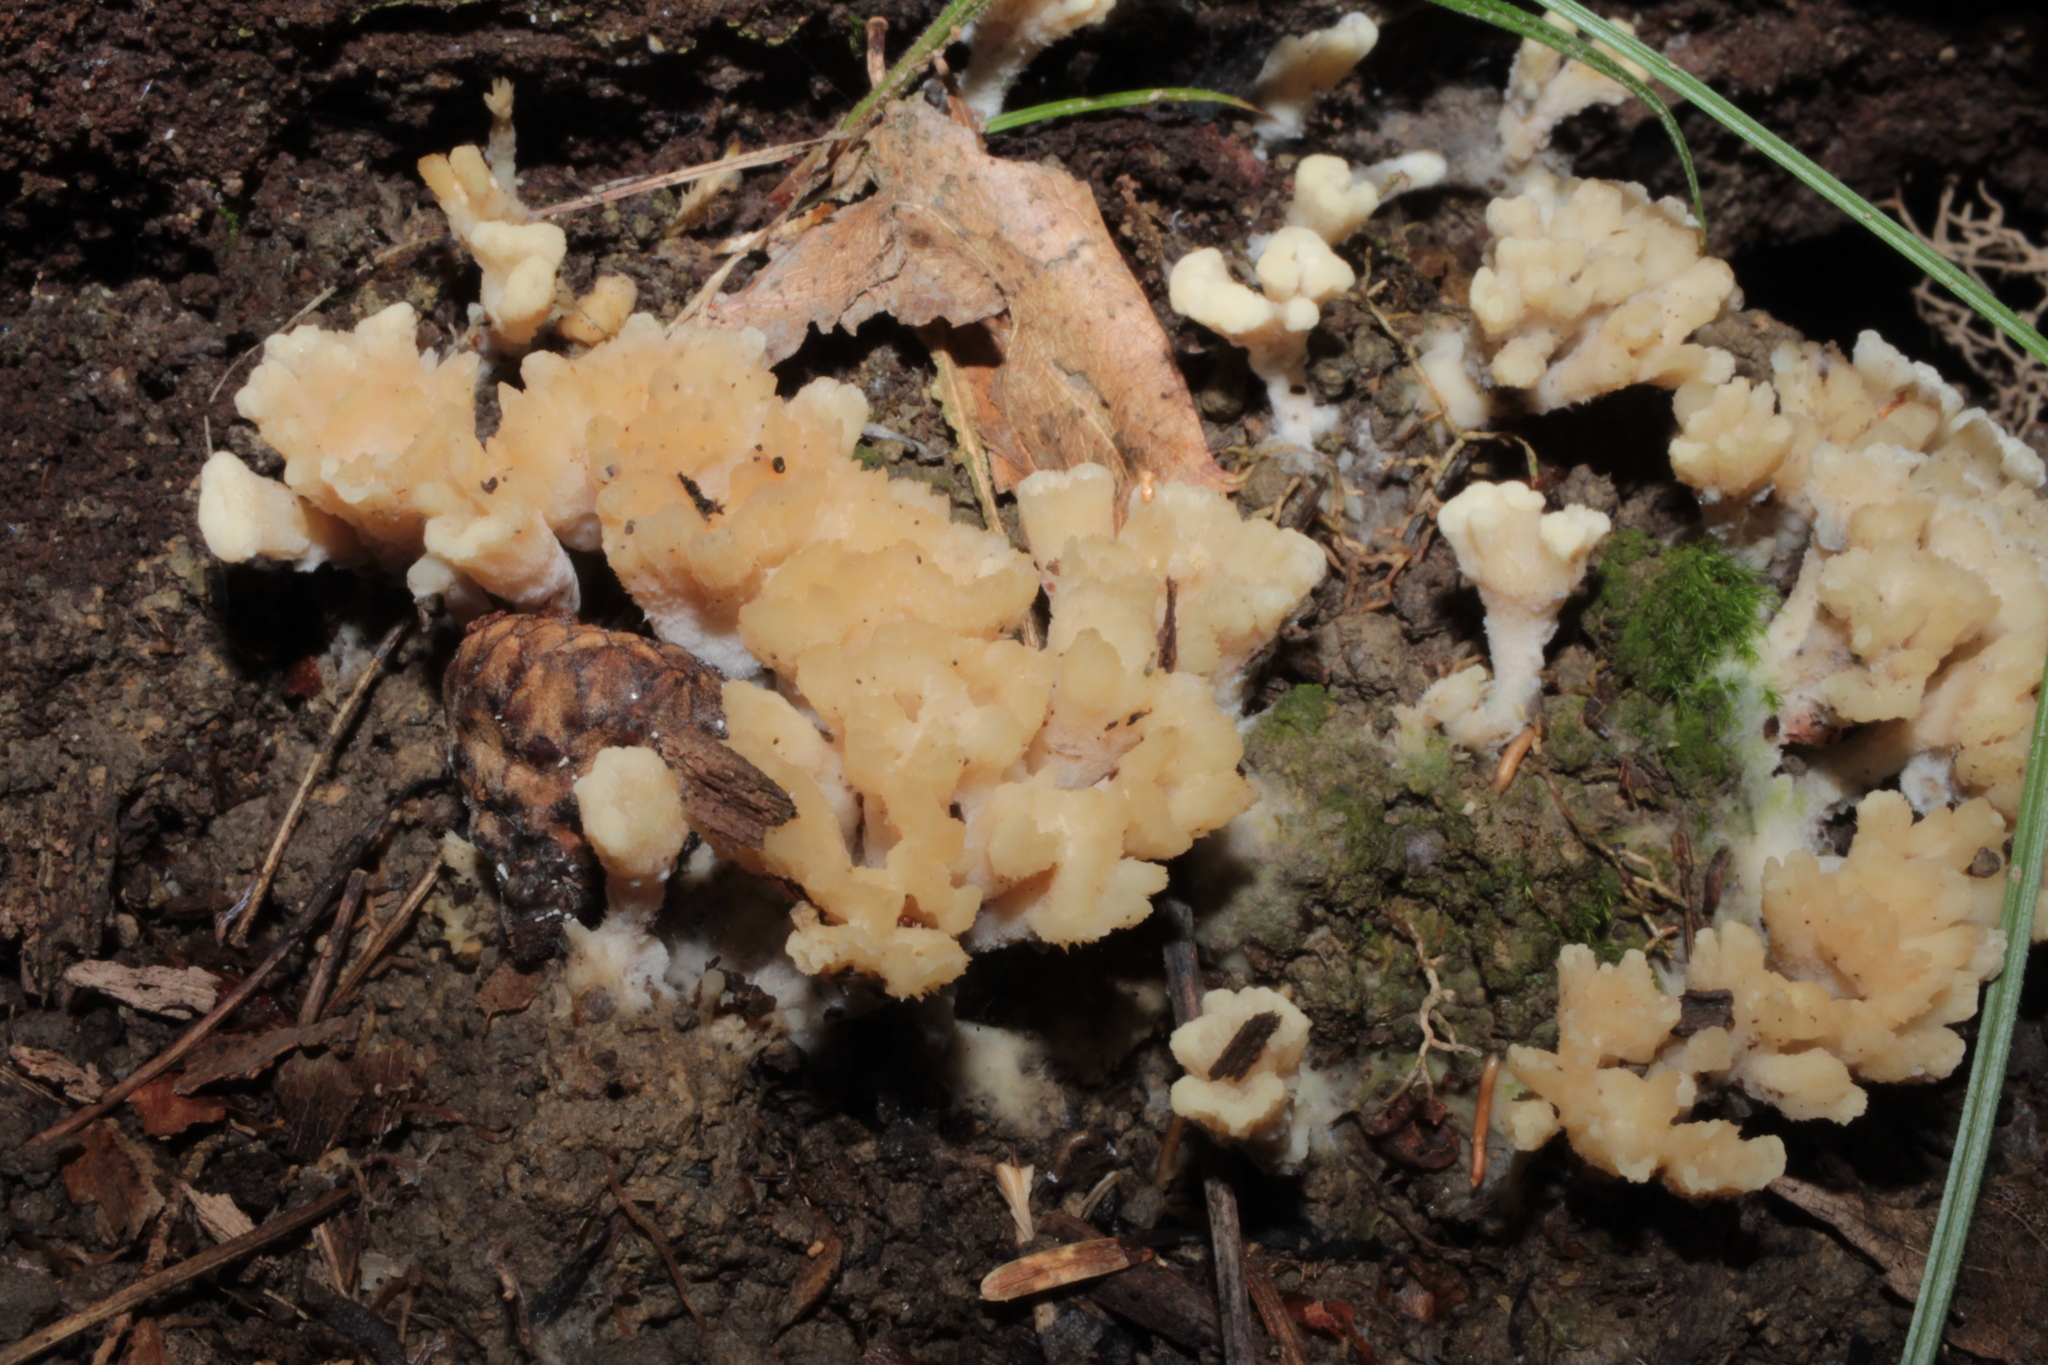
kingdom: Fungi
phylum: Basidiomycota
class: Agaricomycetes
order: Sebacinales
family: Sebacinaceae
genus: Sebacina
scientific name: Sebacina schweinitzii
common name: Jellied false coral fungus
